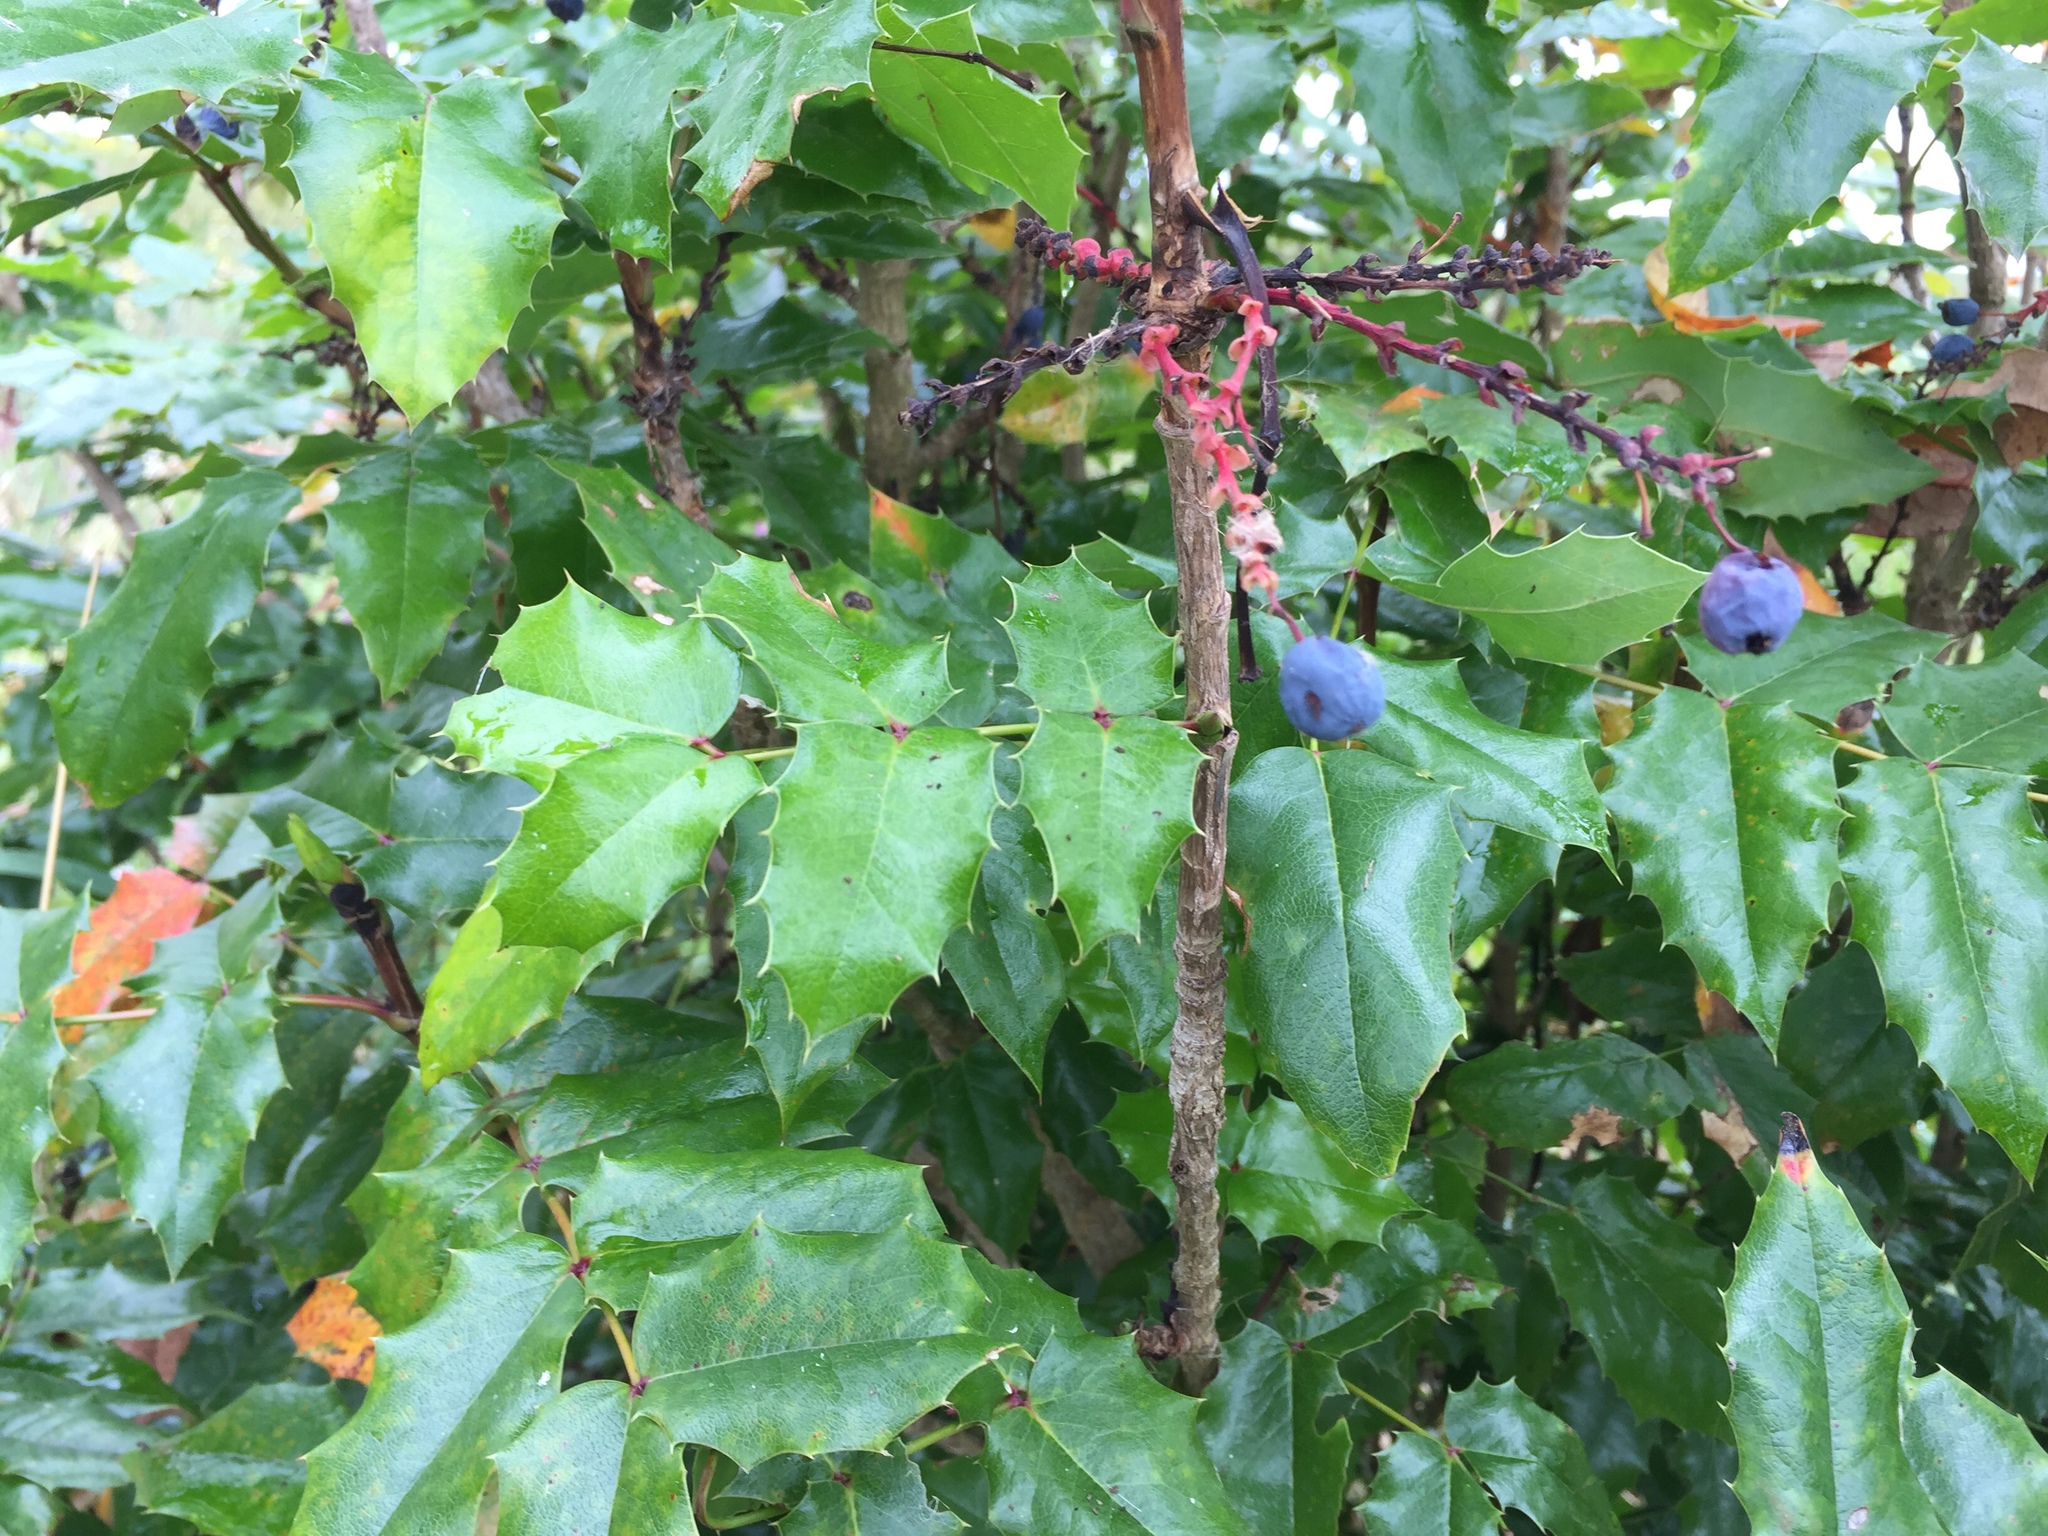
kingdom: Plantae
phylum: Tracheophyta
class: Magnoliopsida
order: Ranunculales
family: Berberidaceae
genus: Mahonia
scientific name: Mahonia aquifolium
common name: Oregon-grape
